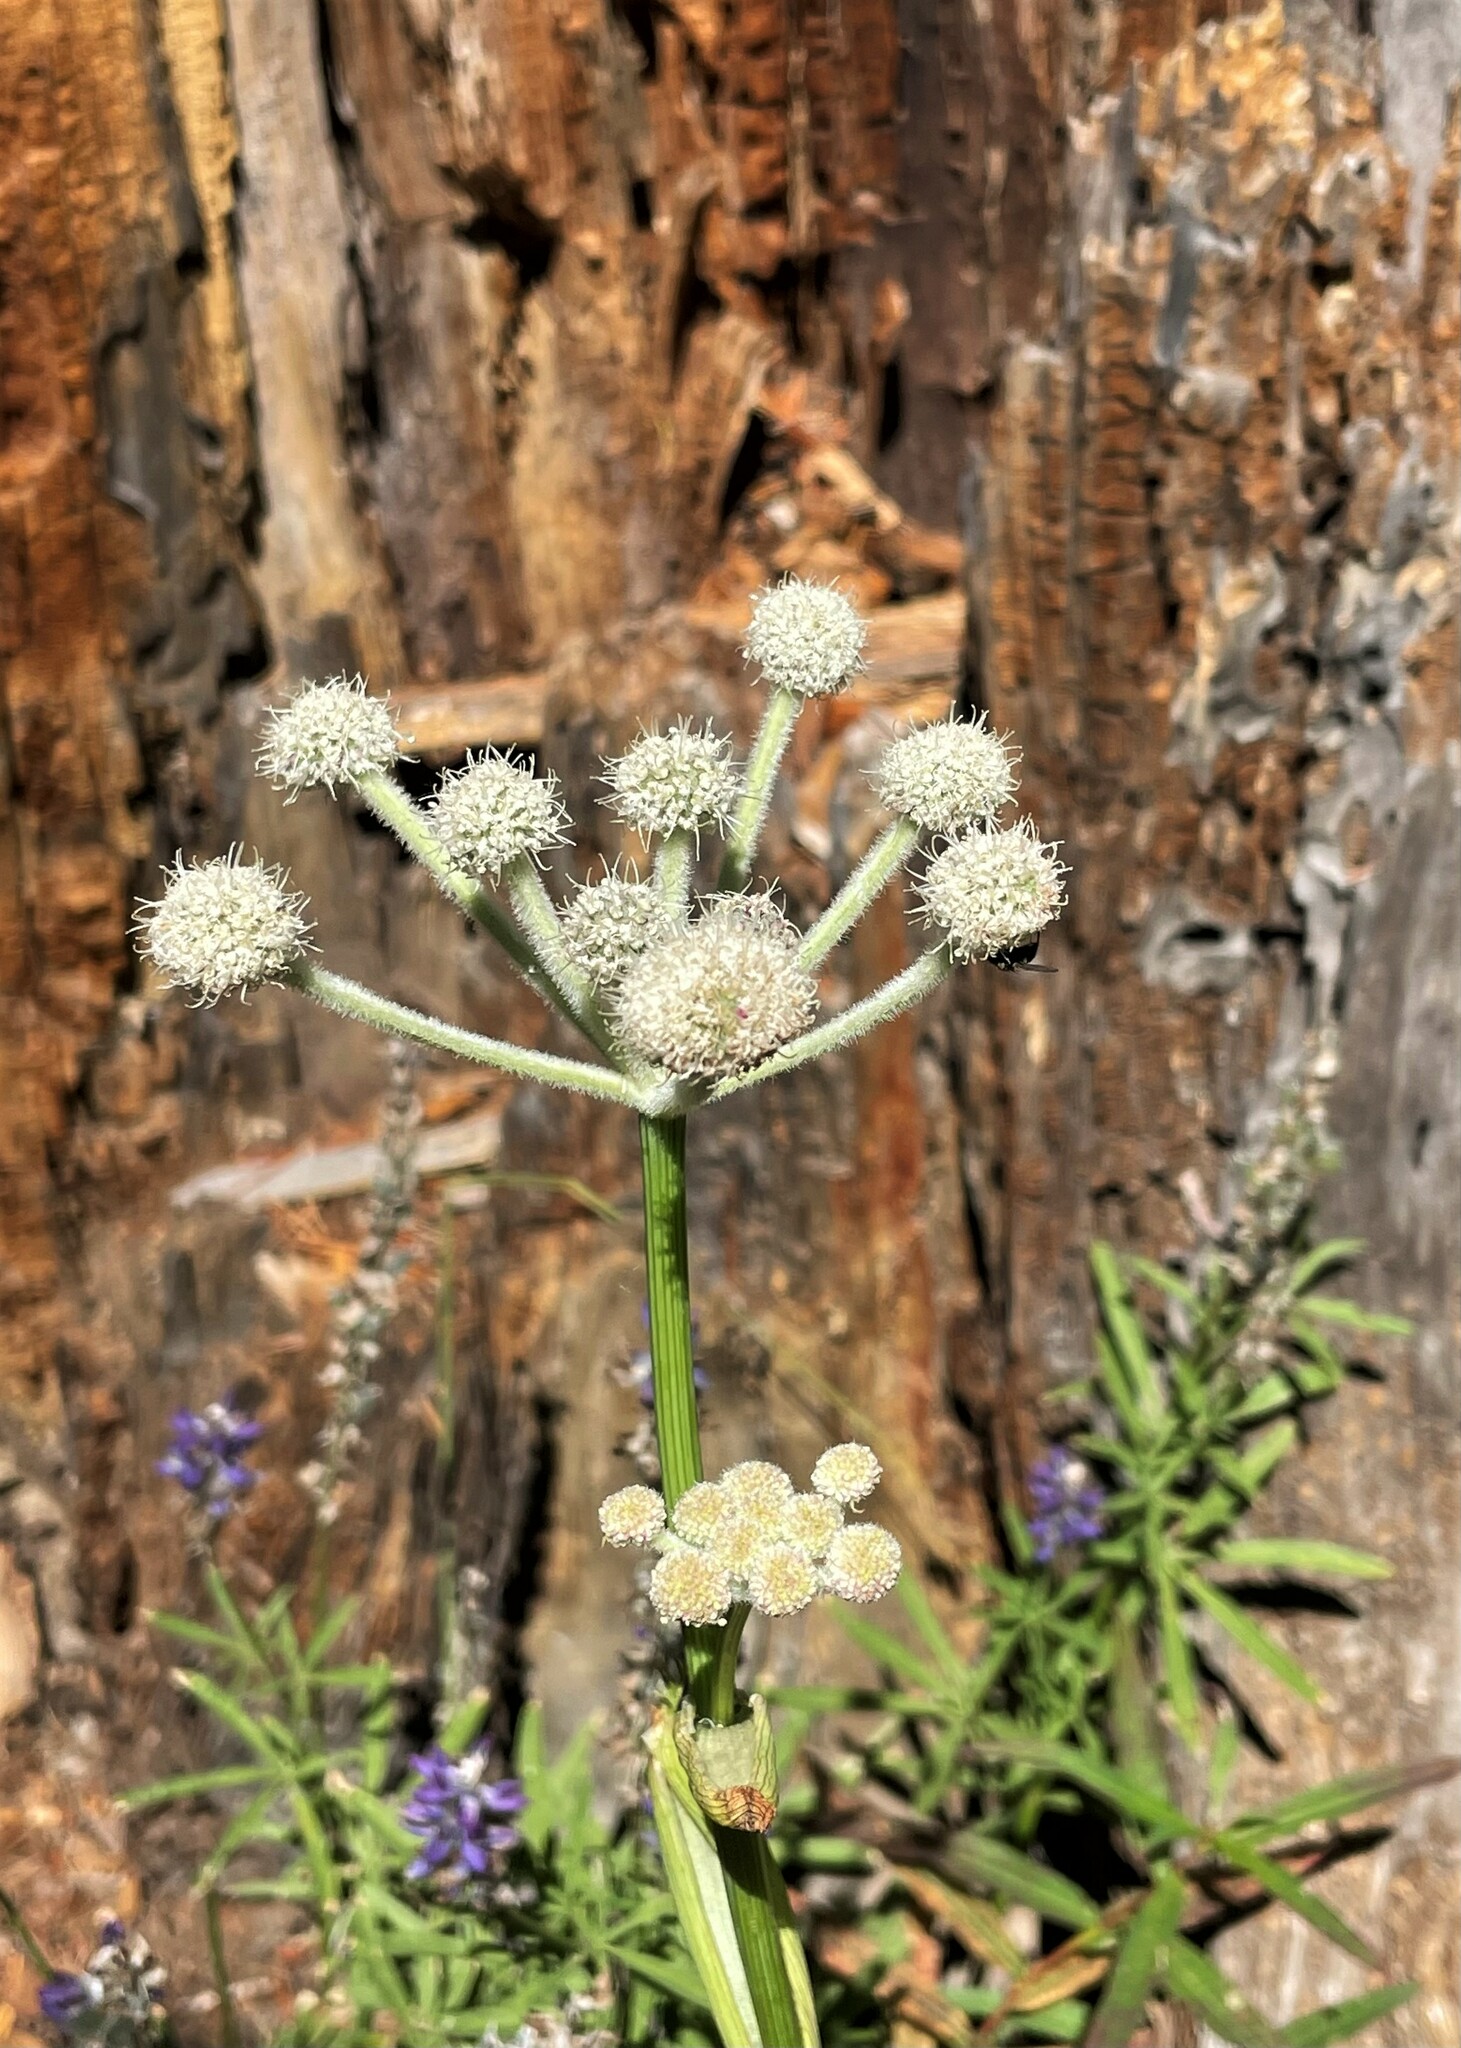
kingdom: Plantae
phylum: Tracheophyta
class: Magnoliopsida
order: Apiales
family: Apiaceae
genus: Angelica
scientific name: Angelica capitellata
